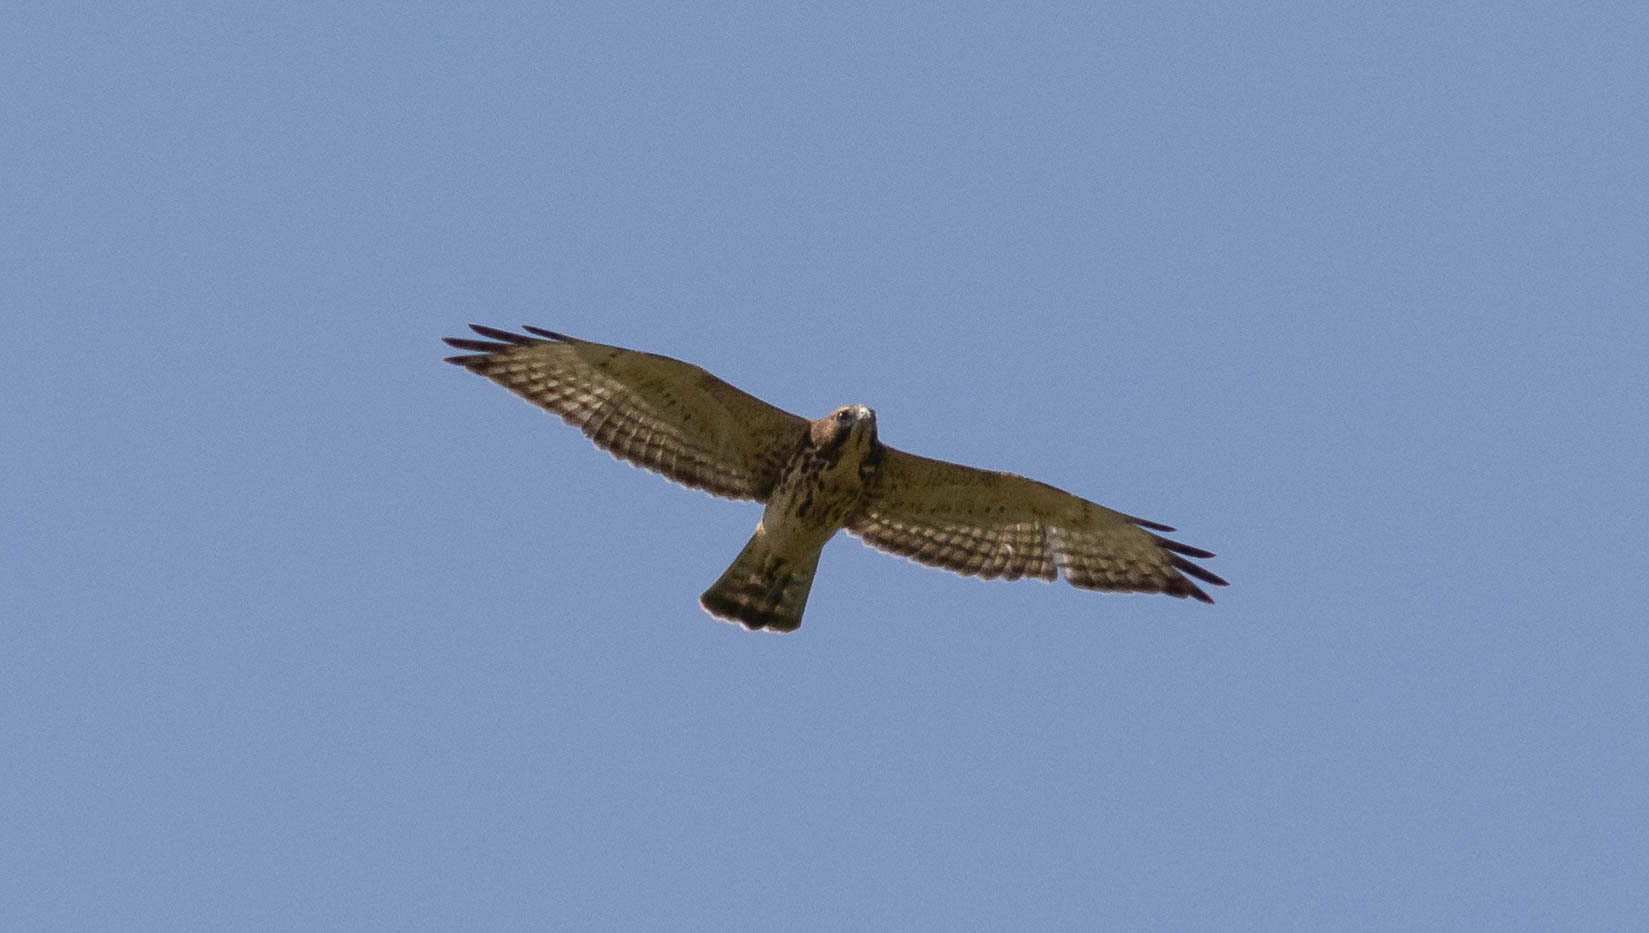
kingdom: Animalia
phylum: Chordata
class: Aves
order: Accipitriformes
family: Accipitridae
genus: Buteo
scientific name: Buteo platypterus
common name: Broad-winged hawk
